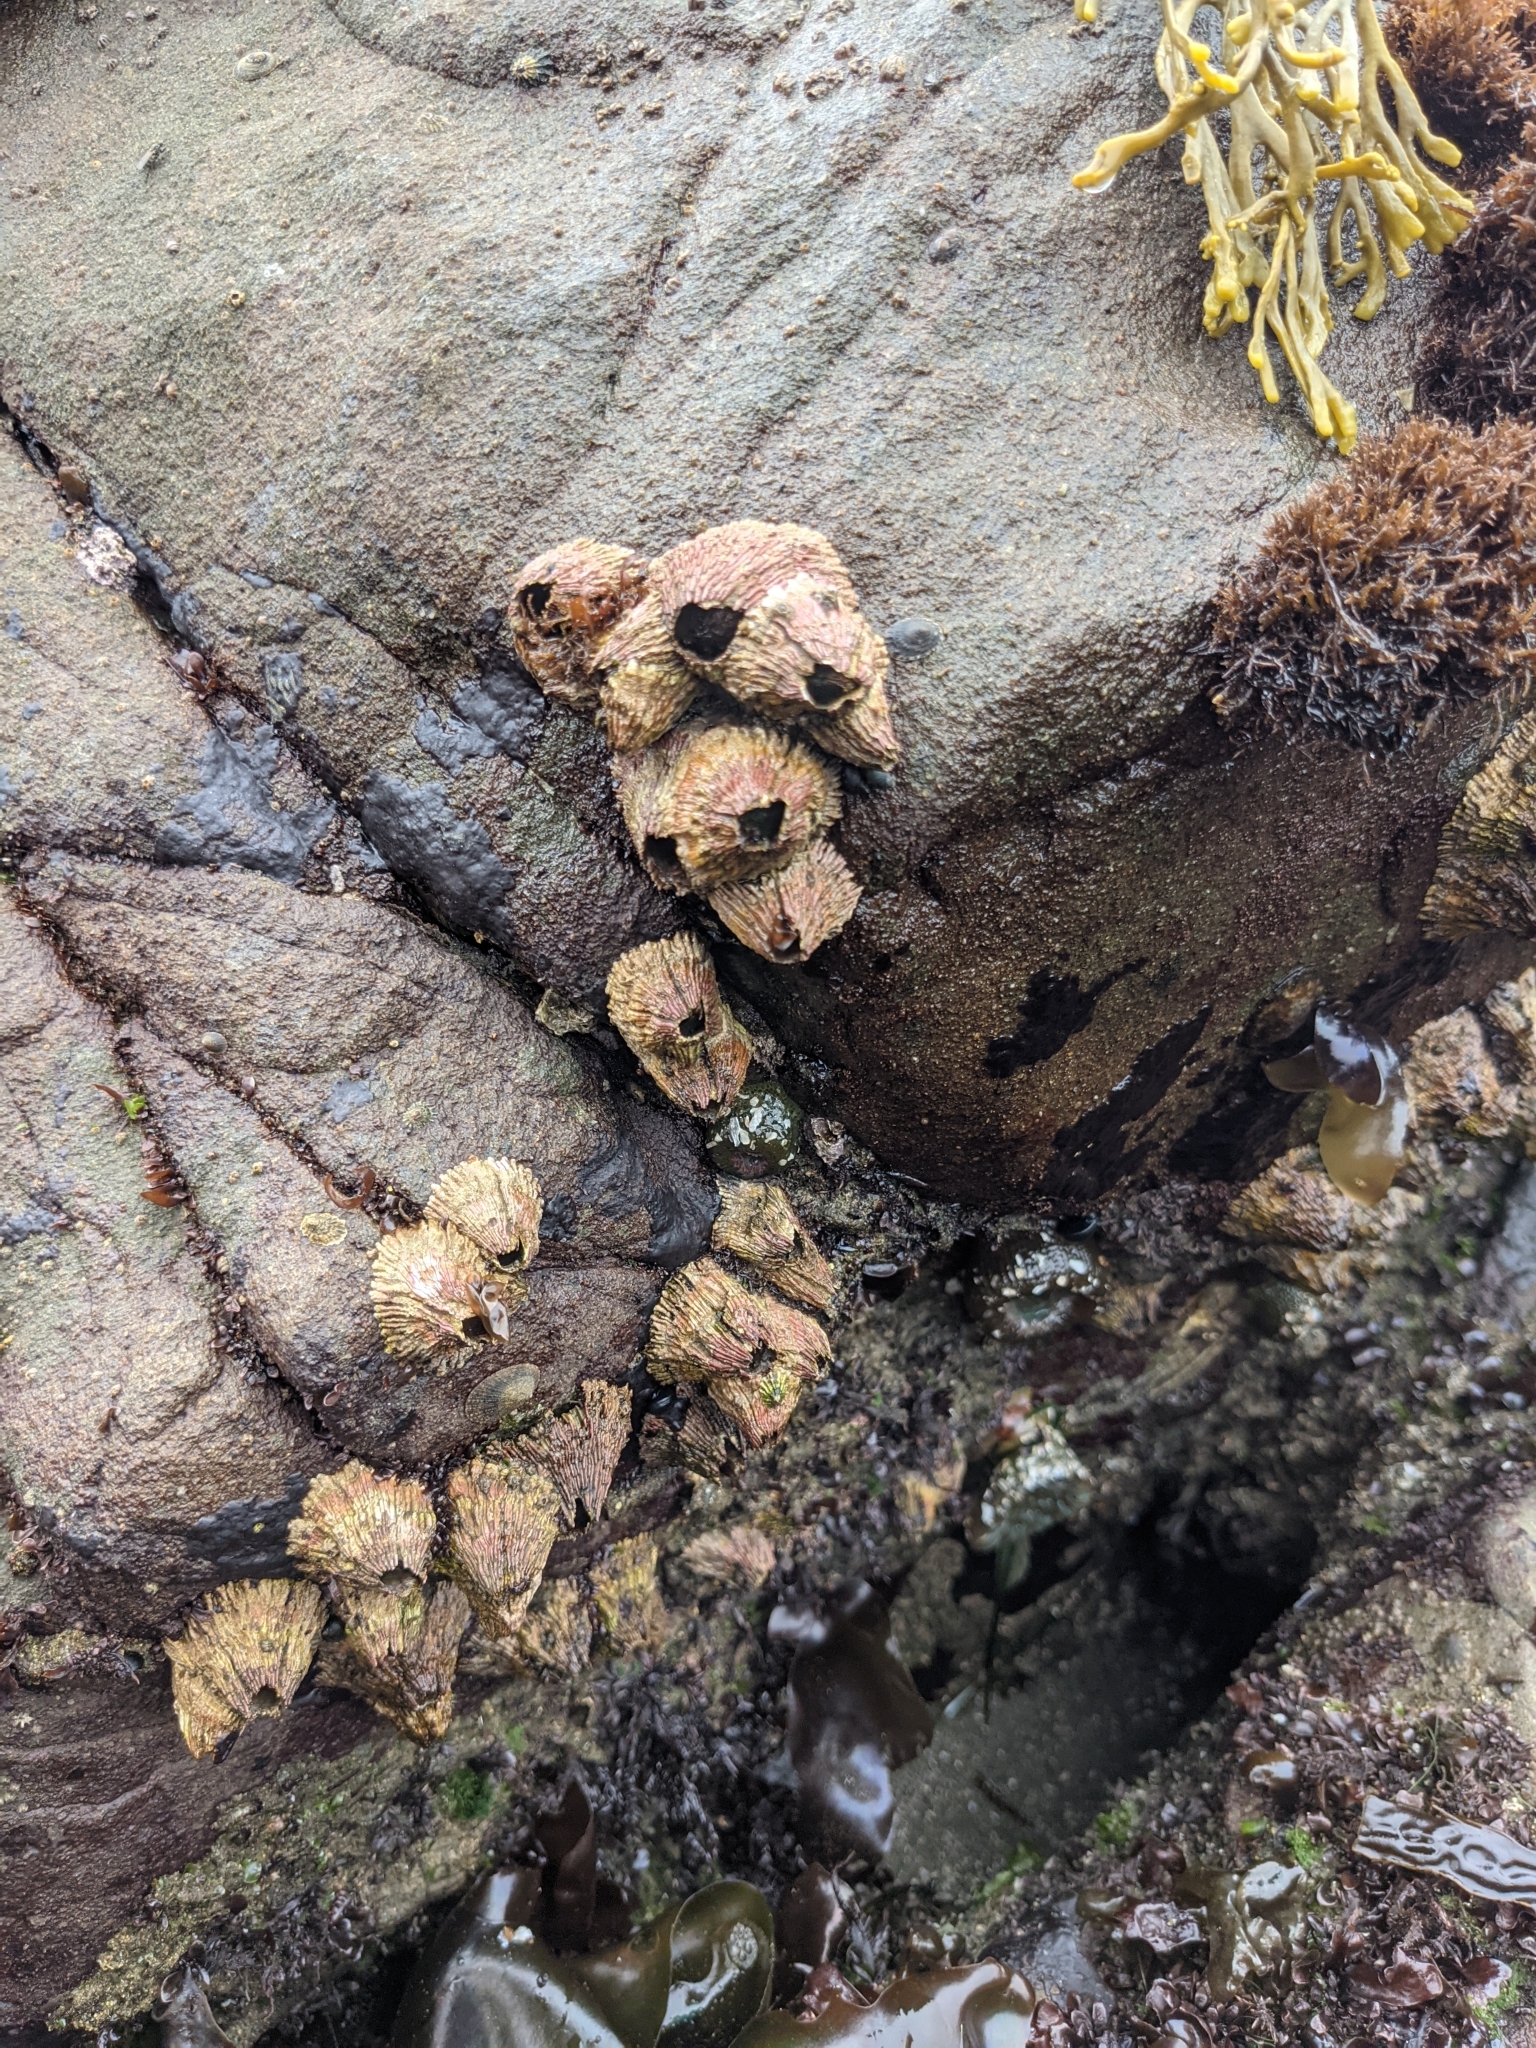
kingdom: Animalia
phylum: Arthropoda
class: Maxillopoda
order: Sessilia
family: Tetraclitidae
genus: Tetraclita
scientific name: Tetraclita rubescens
